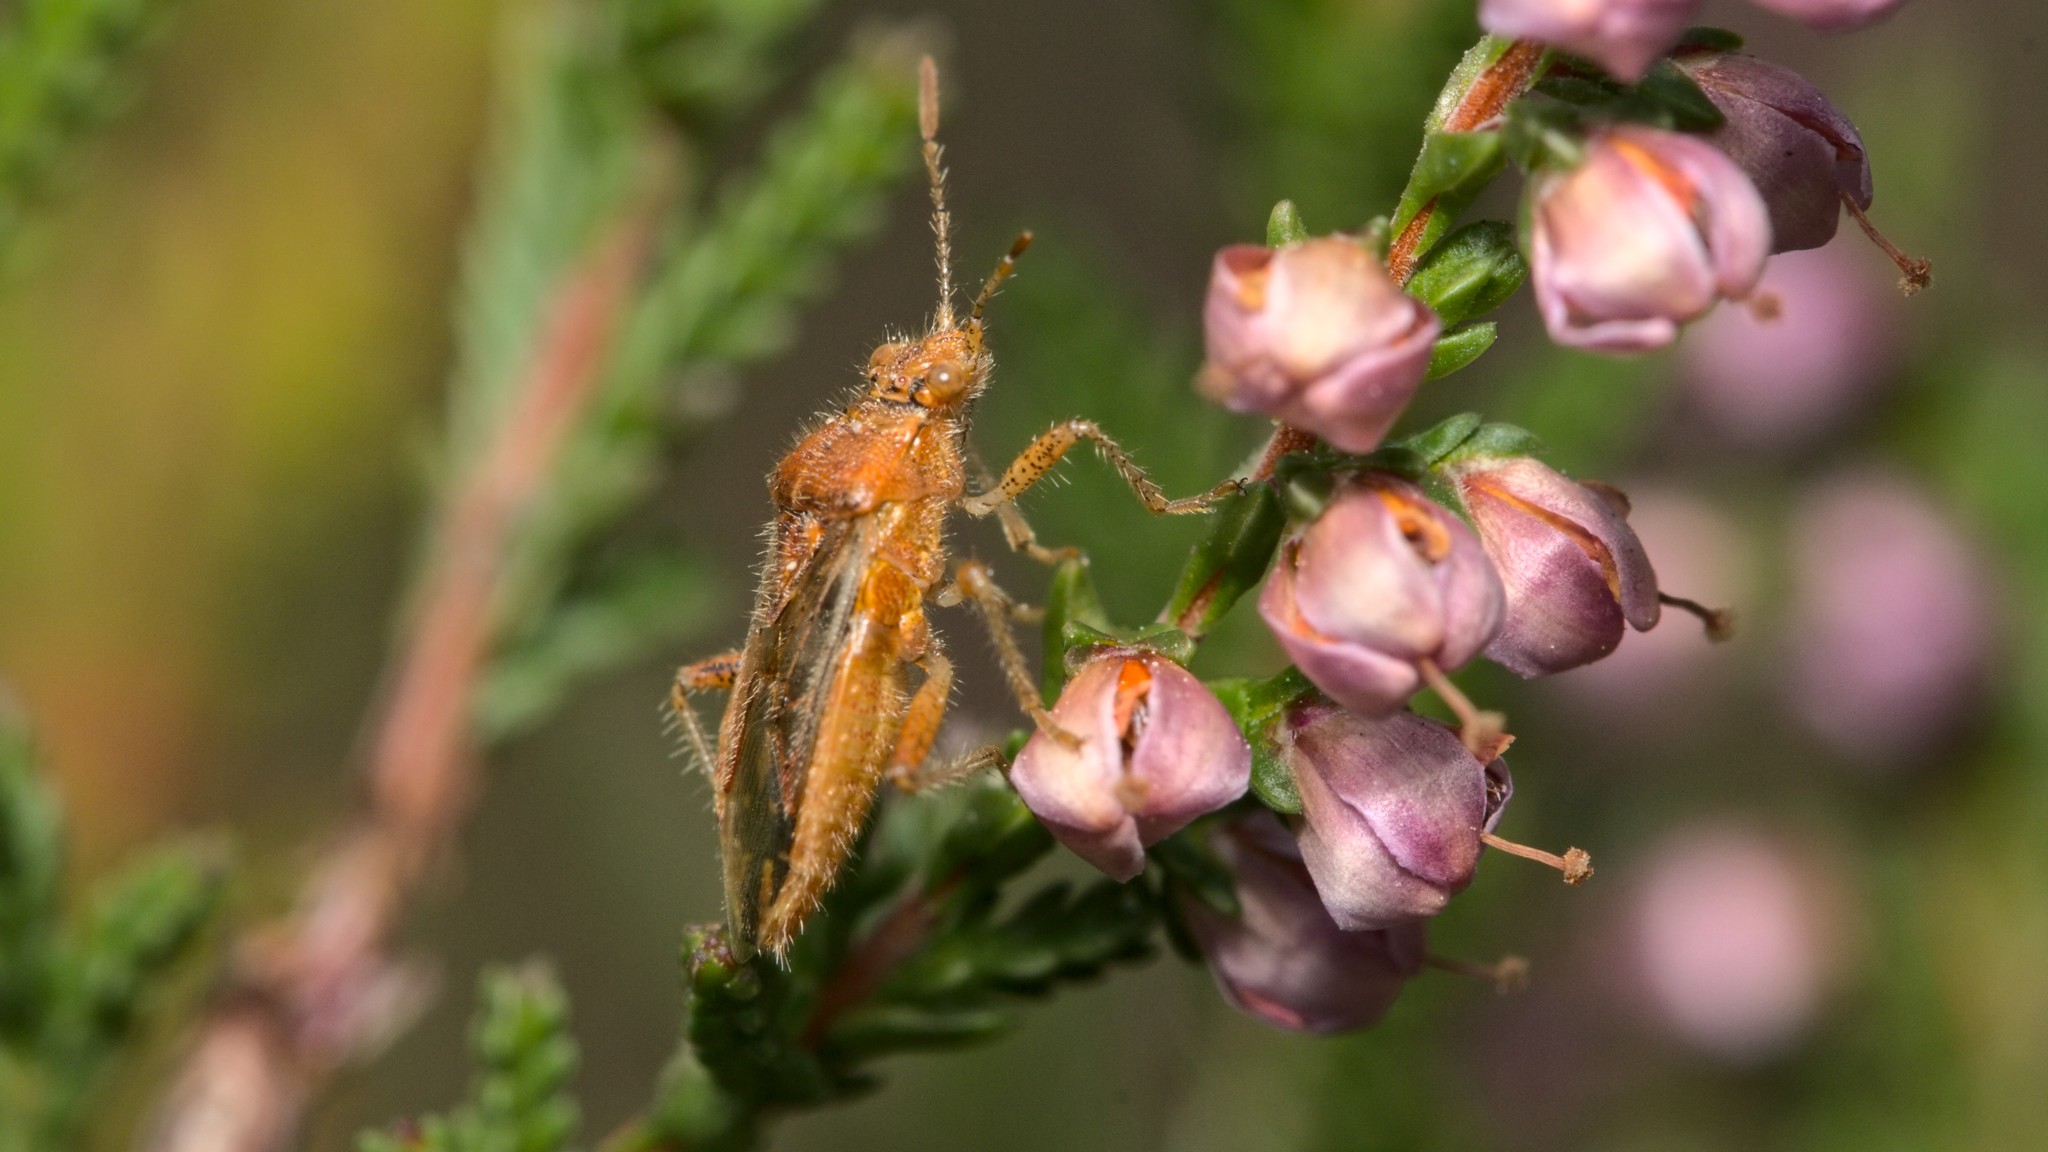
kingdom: Animalia
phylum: Arthropoda
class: Insecta
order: Hemiptera
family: Rhopalidae
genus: Rhopalus
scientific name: Rhopalus parumpunctatus
